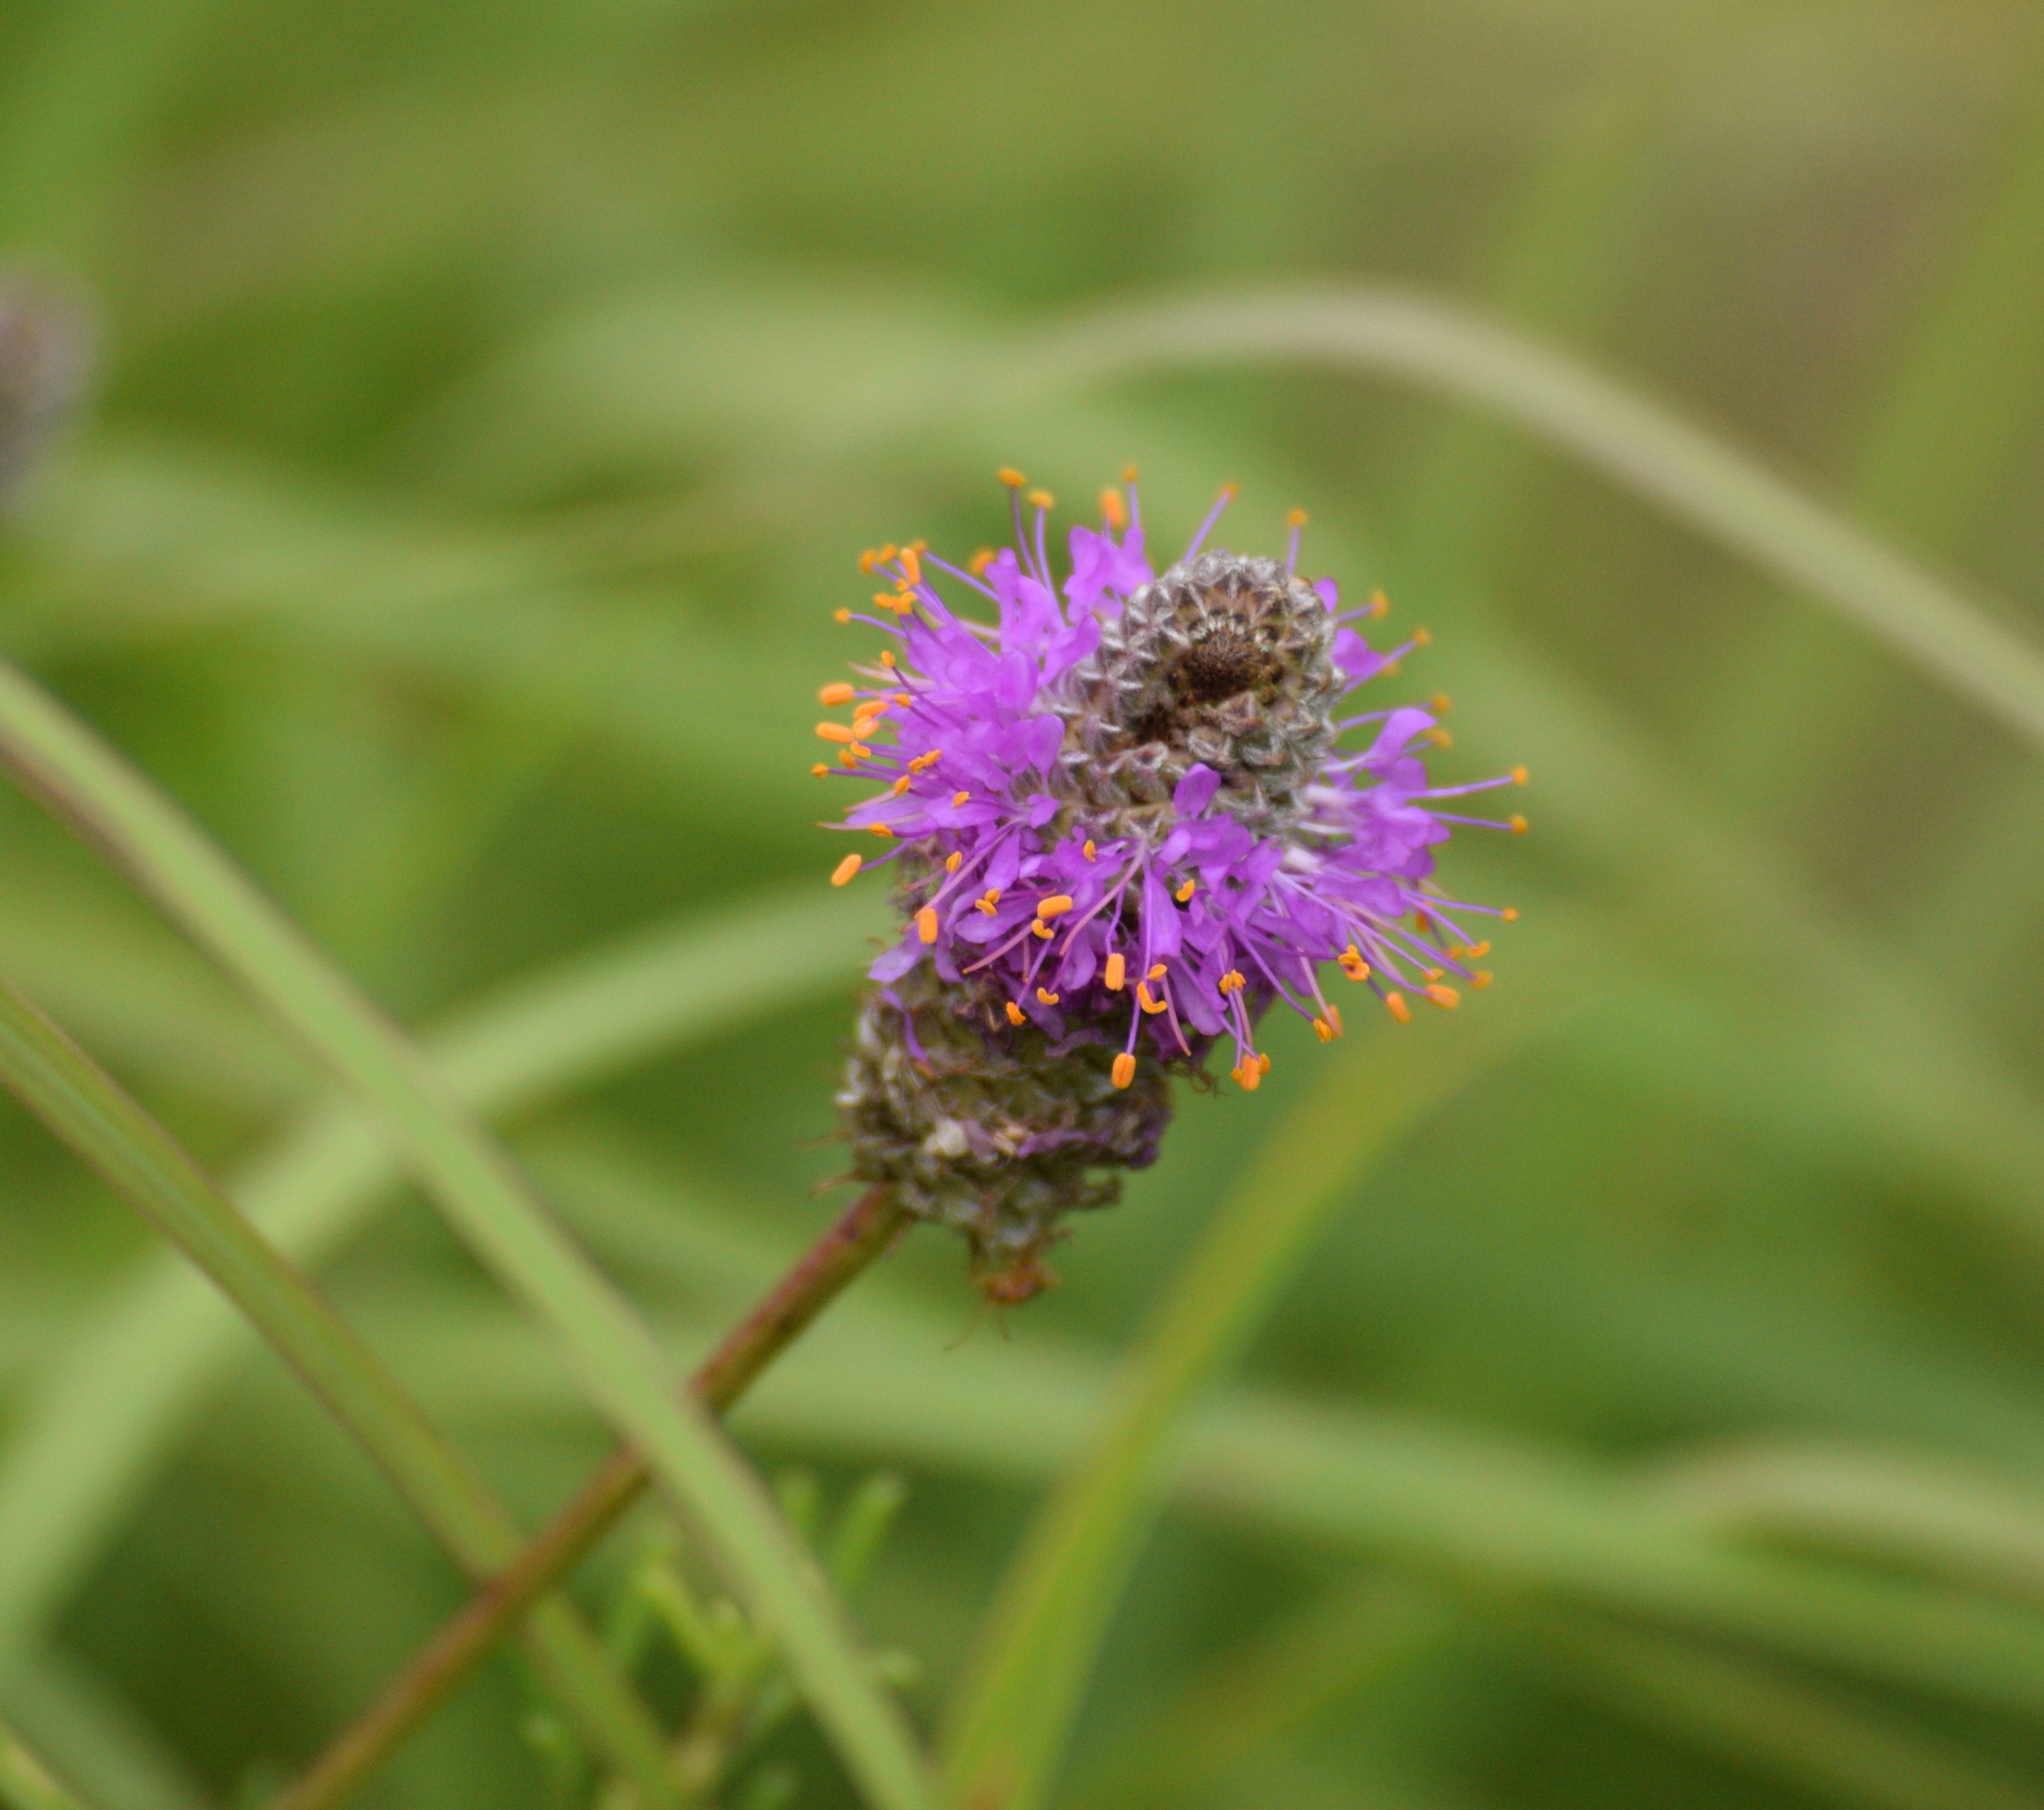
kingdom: Plantae
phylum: Tracheophyta
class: Magnoliopsida
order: Fabales
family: Fabaceae
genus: Dalea
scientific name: Dalea purpurea
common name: Purple prairie-clover
